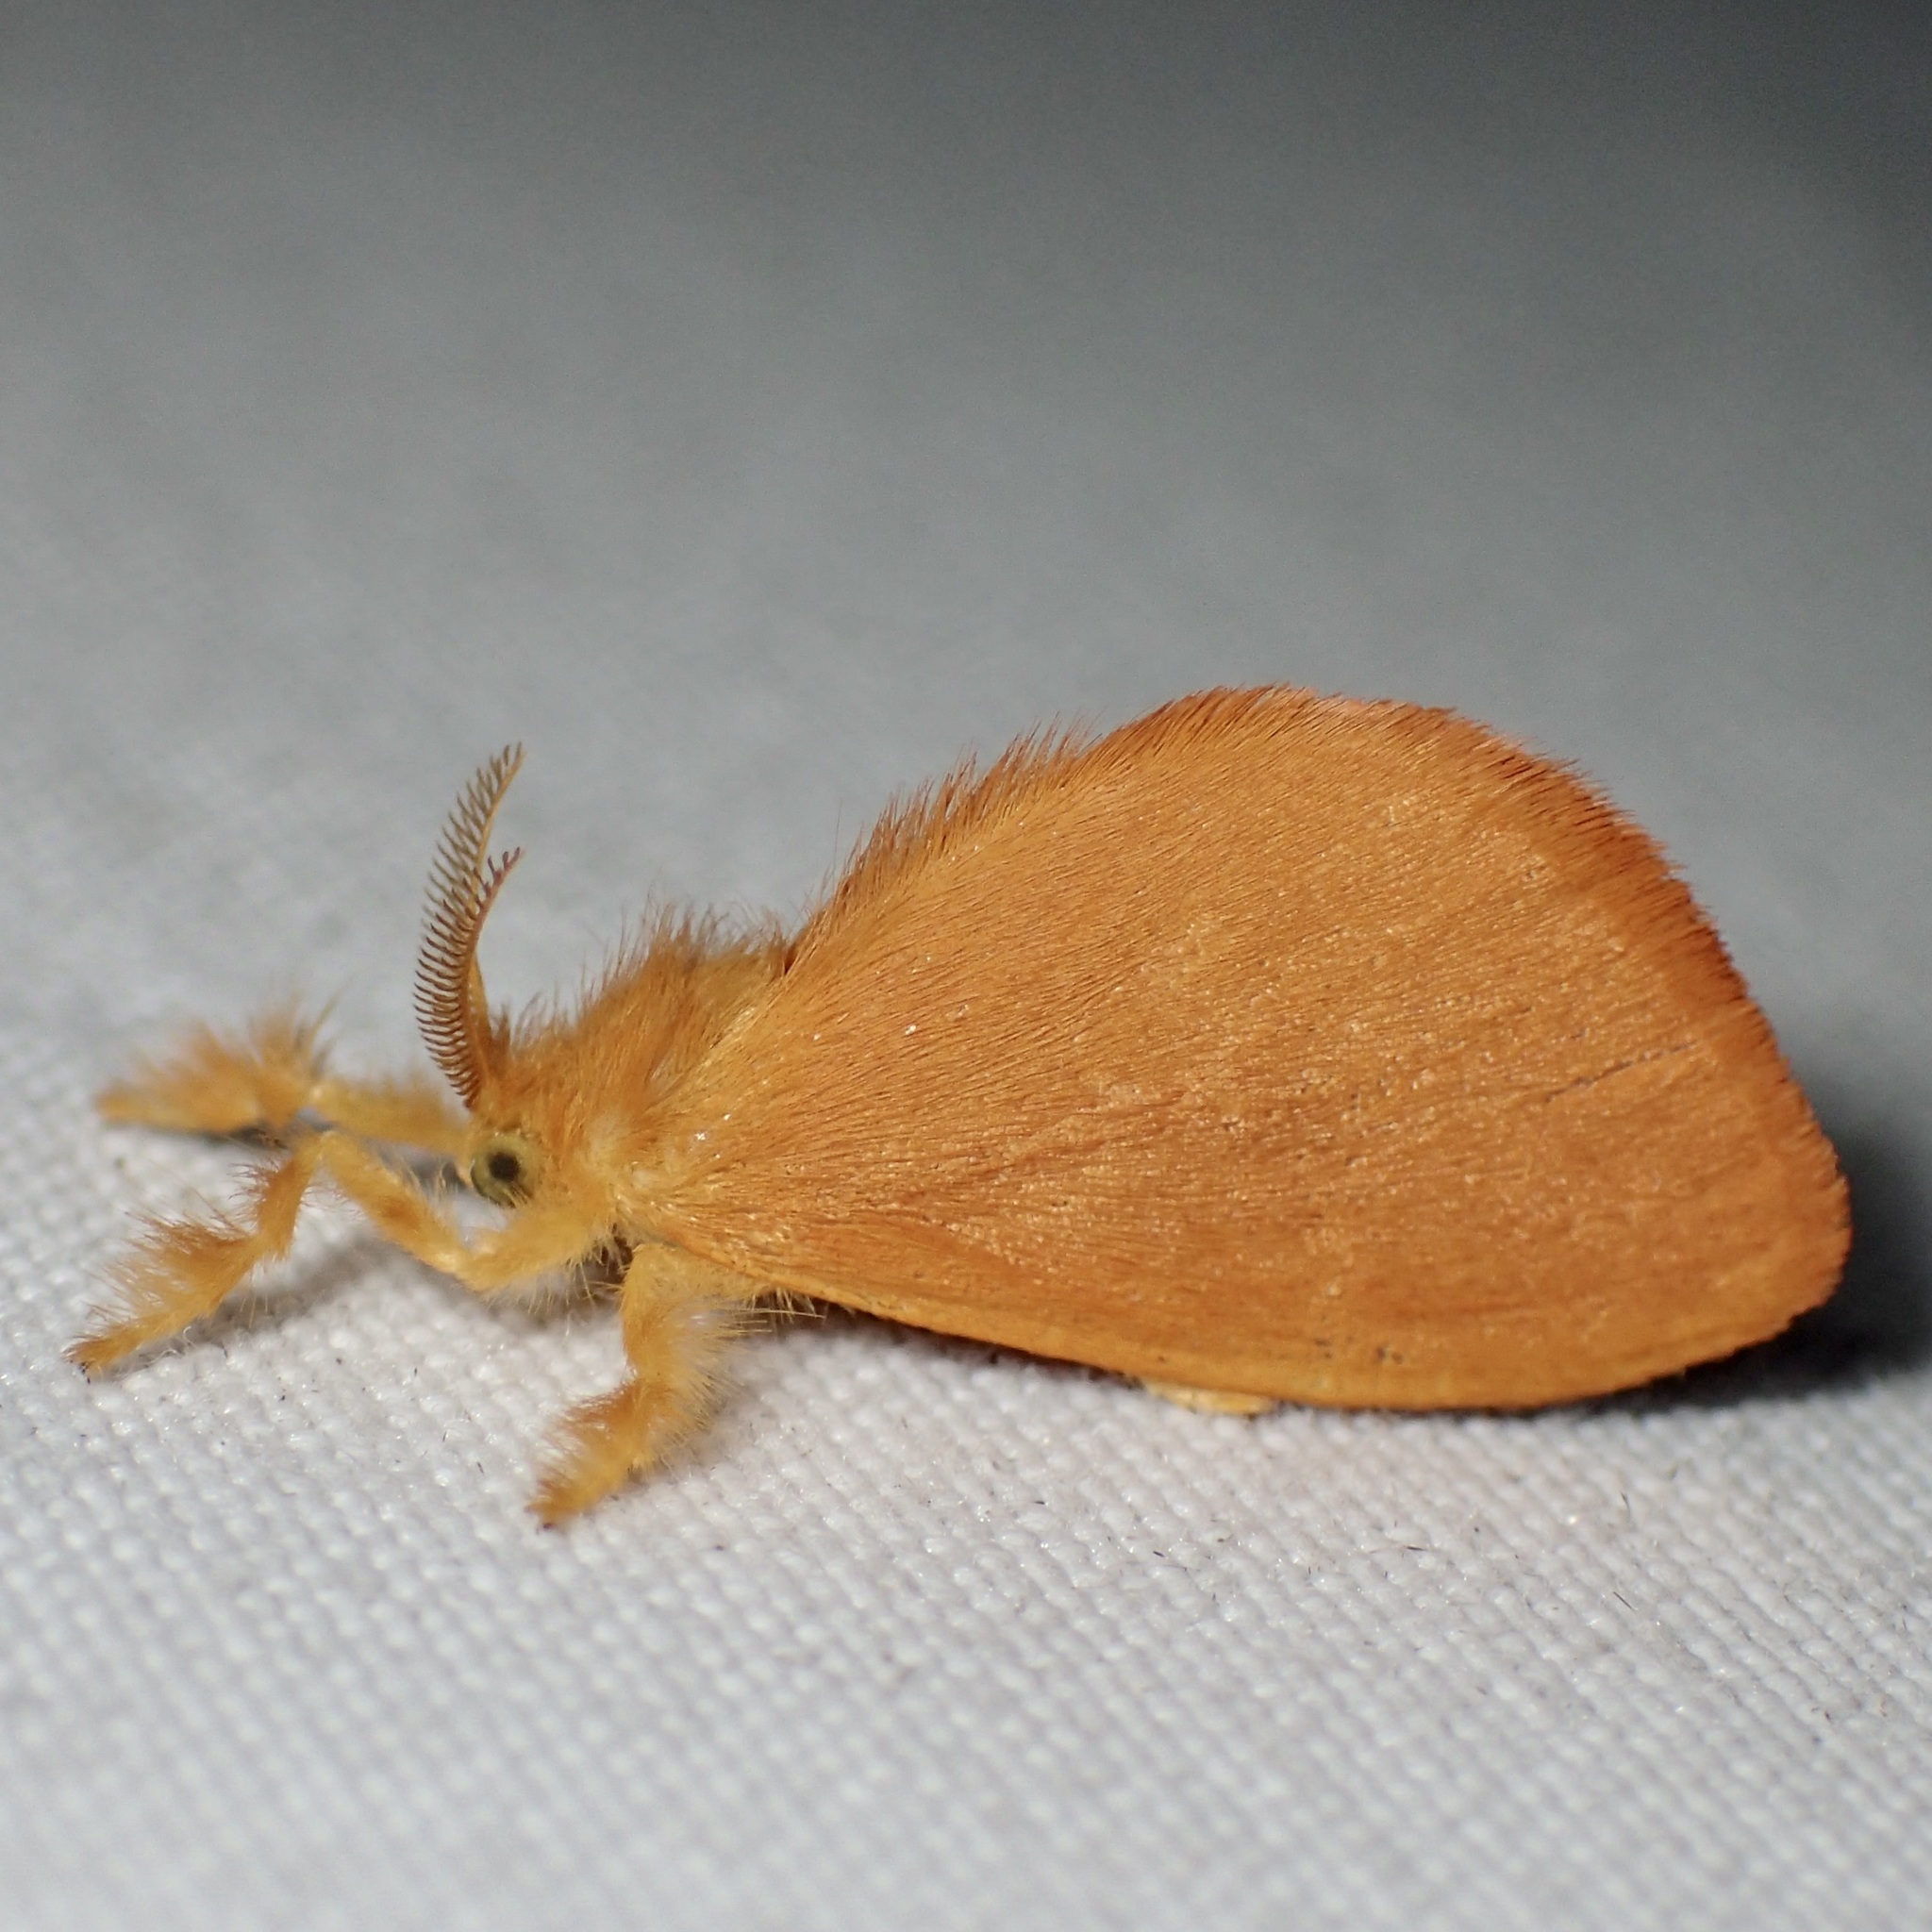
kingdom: Animalia
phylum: Arthropoda
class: Insecta
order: Lepidoptera
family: Dalceridae
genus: Dalcerides
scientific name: Dalcerides ingenita
